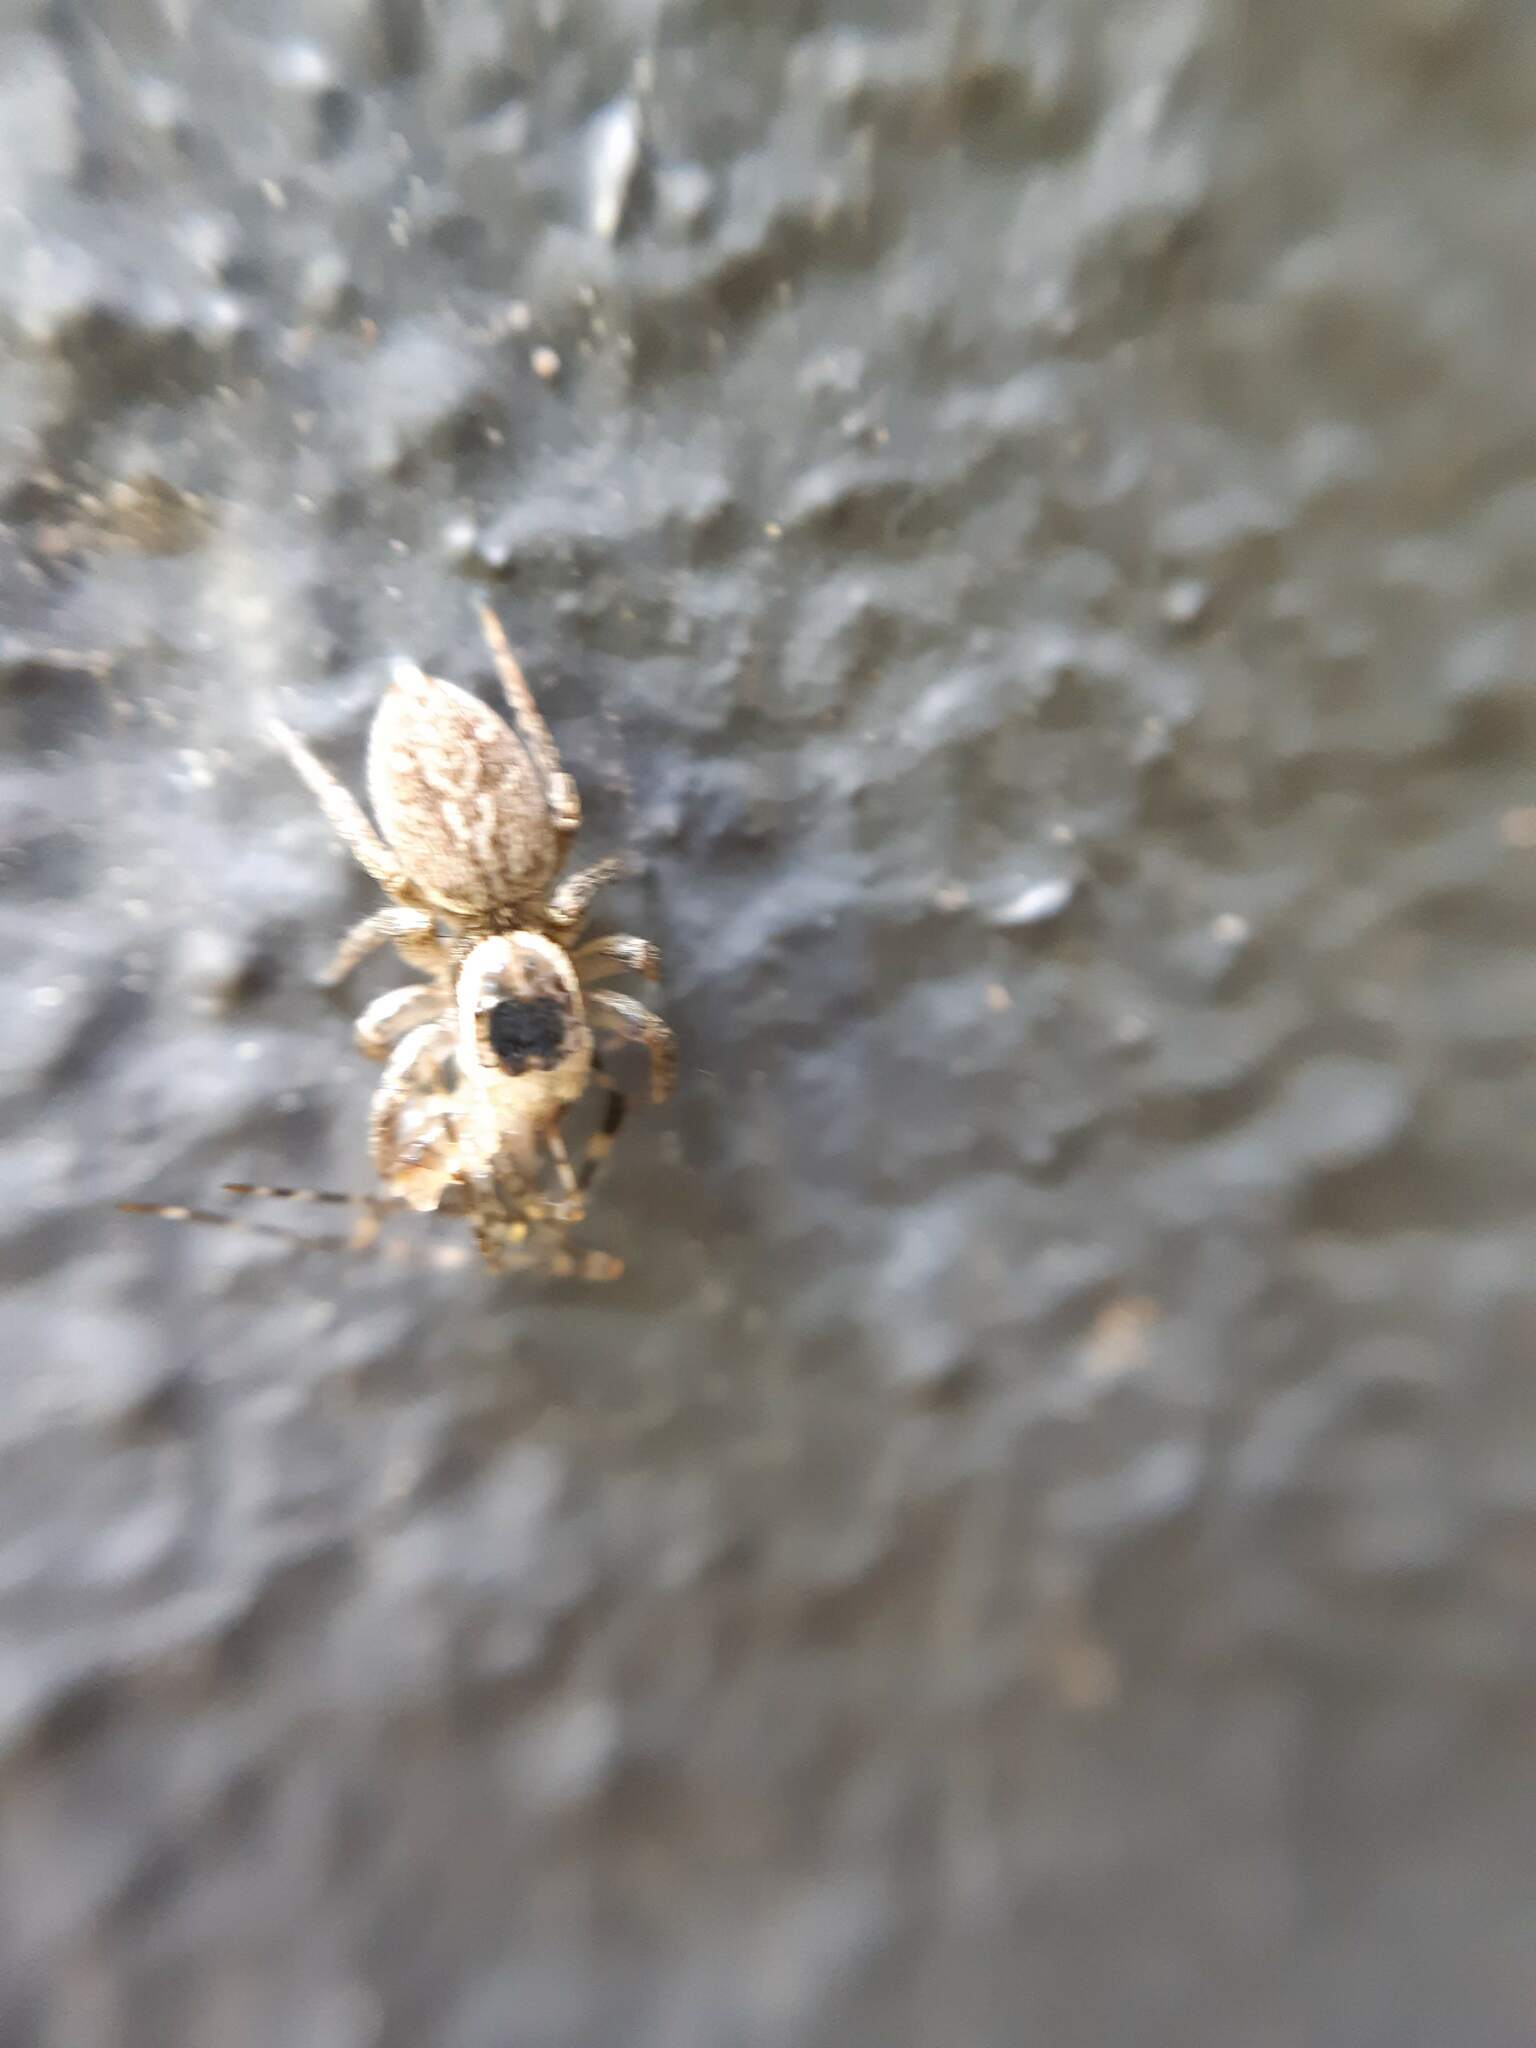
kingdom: Animalia
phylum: Arthropoda
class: Arachnida
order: Araneae
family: Salticidae
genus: Maratus
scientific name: Maratus griseus
